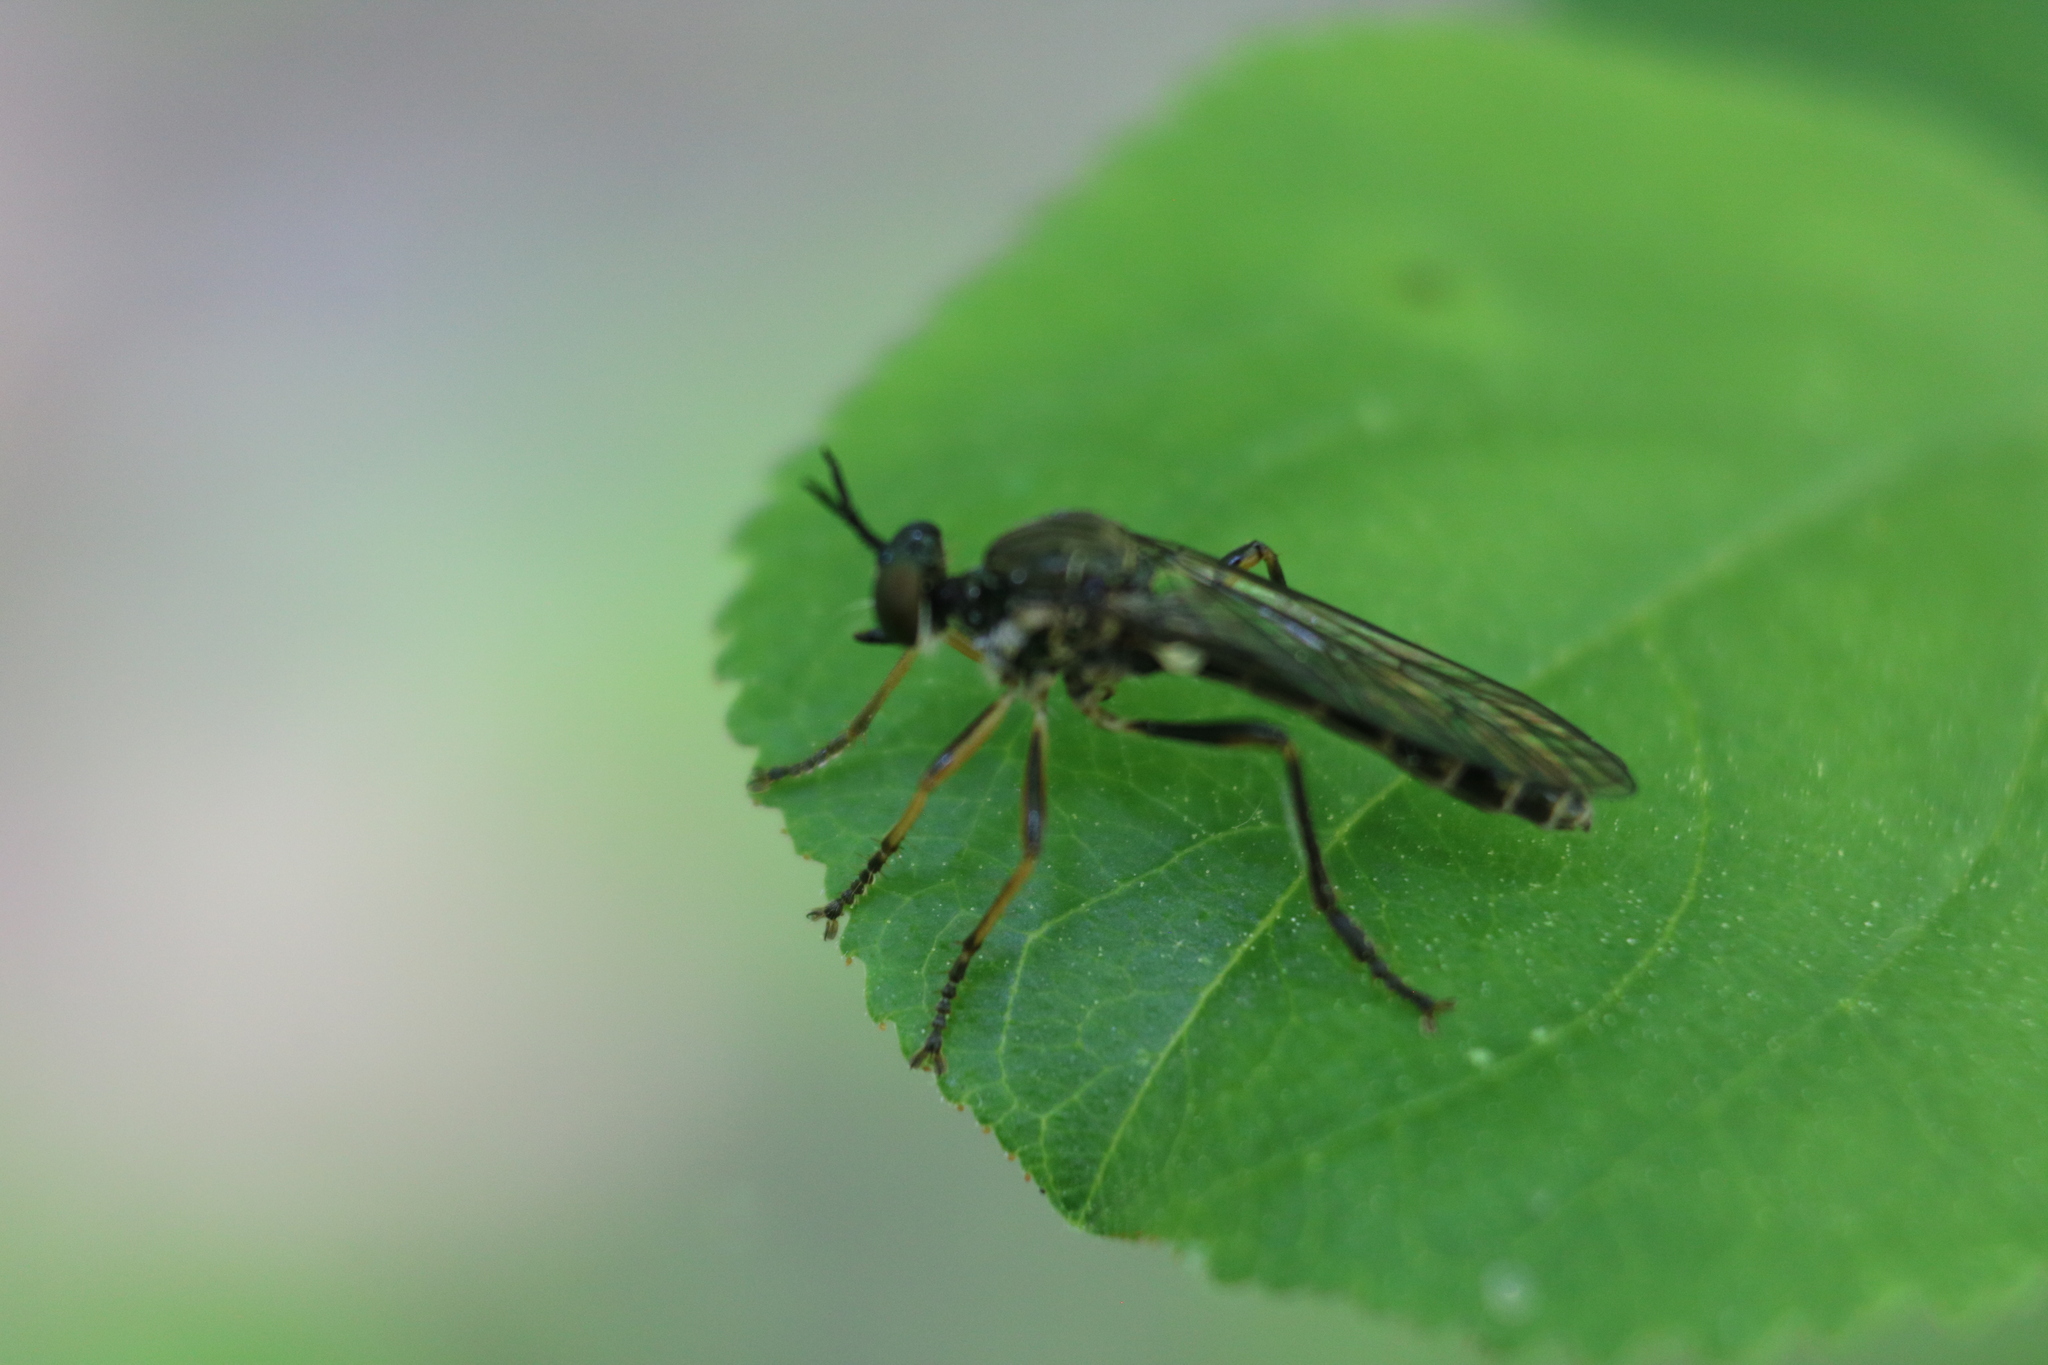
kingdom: Animalia
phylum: Arthropoda
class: Insecta
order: Diptera
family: Asilidae
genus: Dioctria
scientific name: Dioctria hyalipennis
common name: Stripe-legged robberfly
